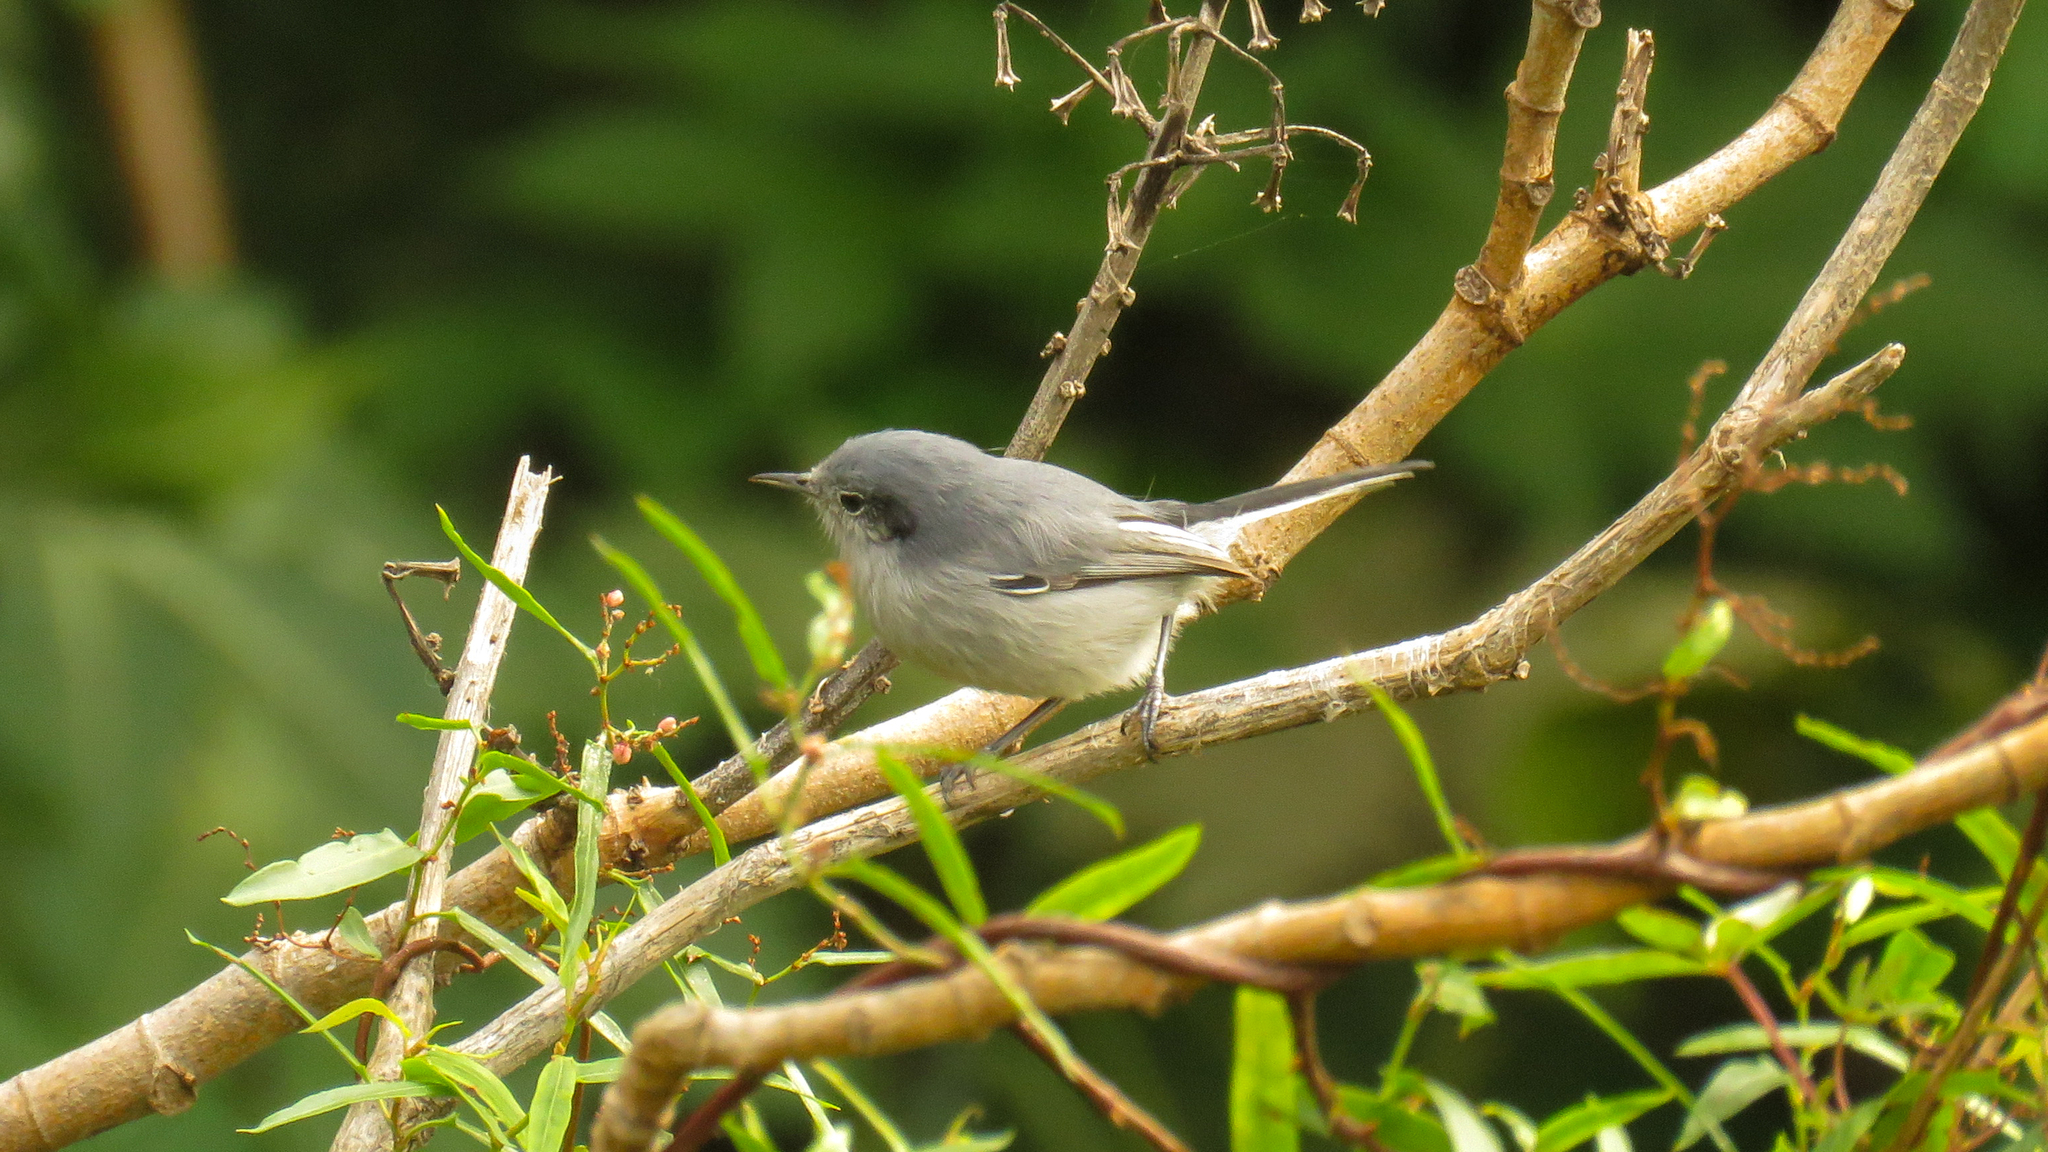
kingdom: Animalia
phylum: Chordata
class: Aves
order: Passeriformes
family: Polioptilidae
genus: Polioptila
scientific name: Polioptila dumicola
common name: Masked gnatcatcher
